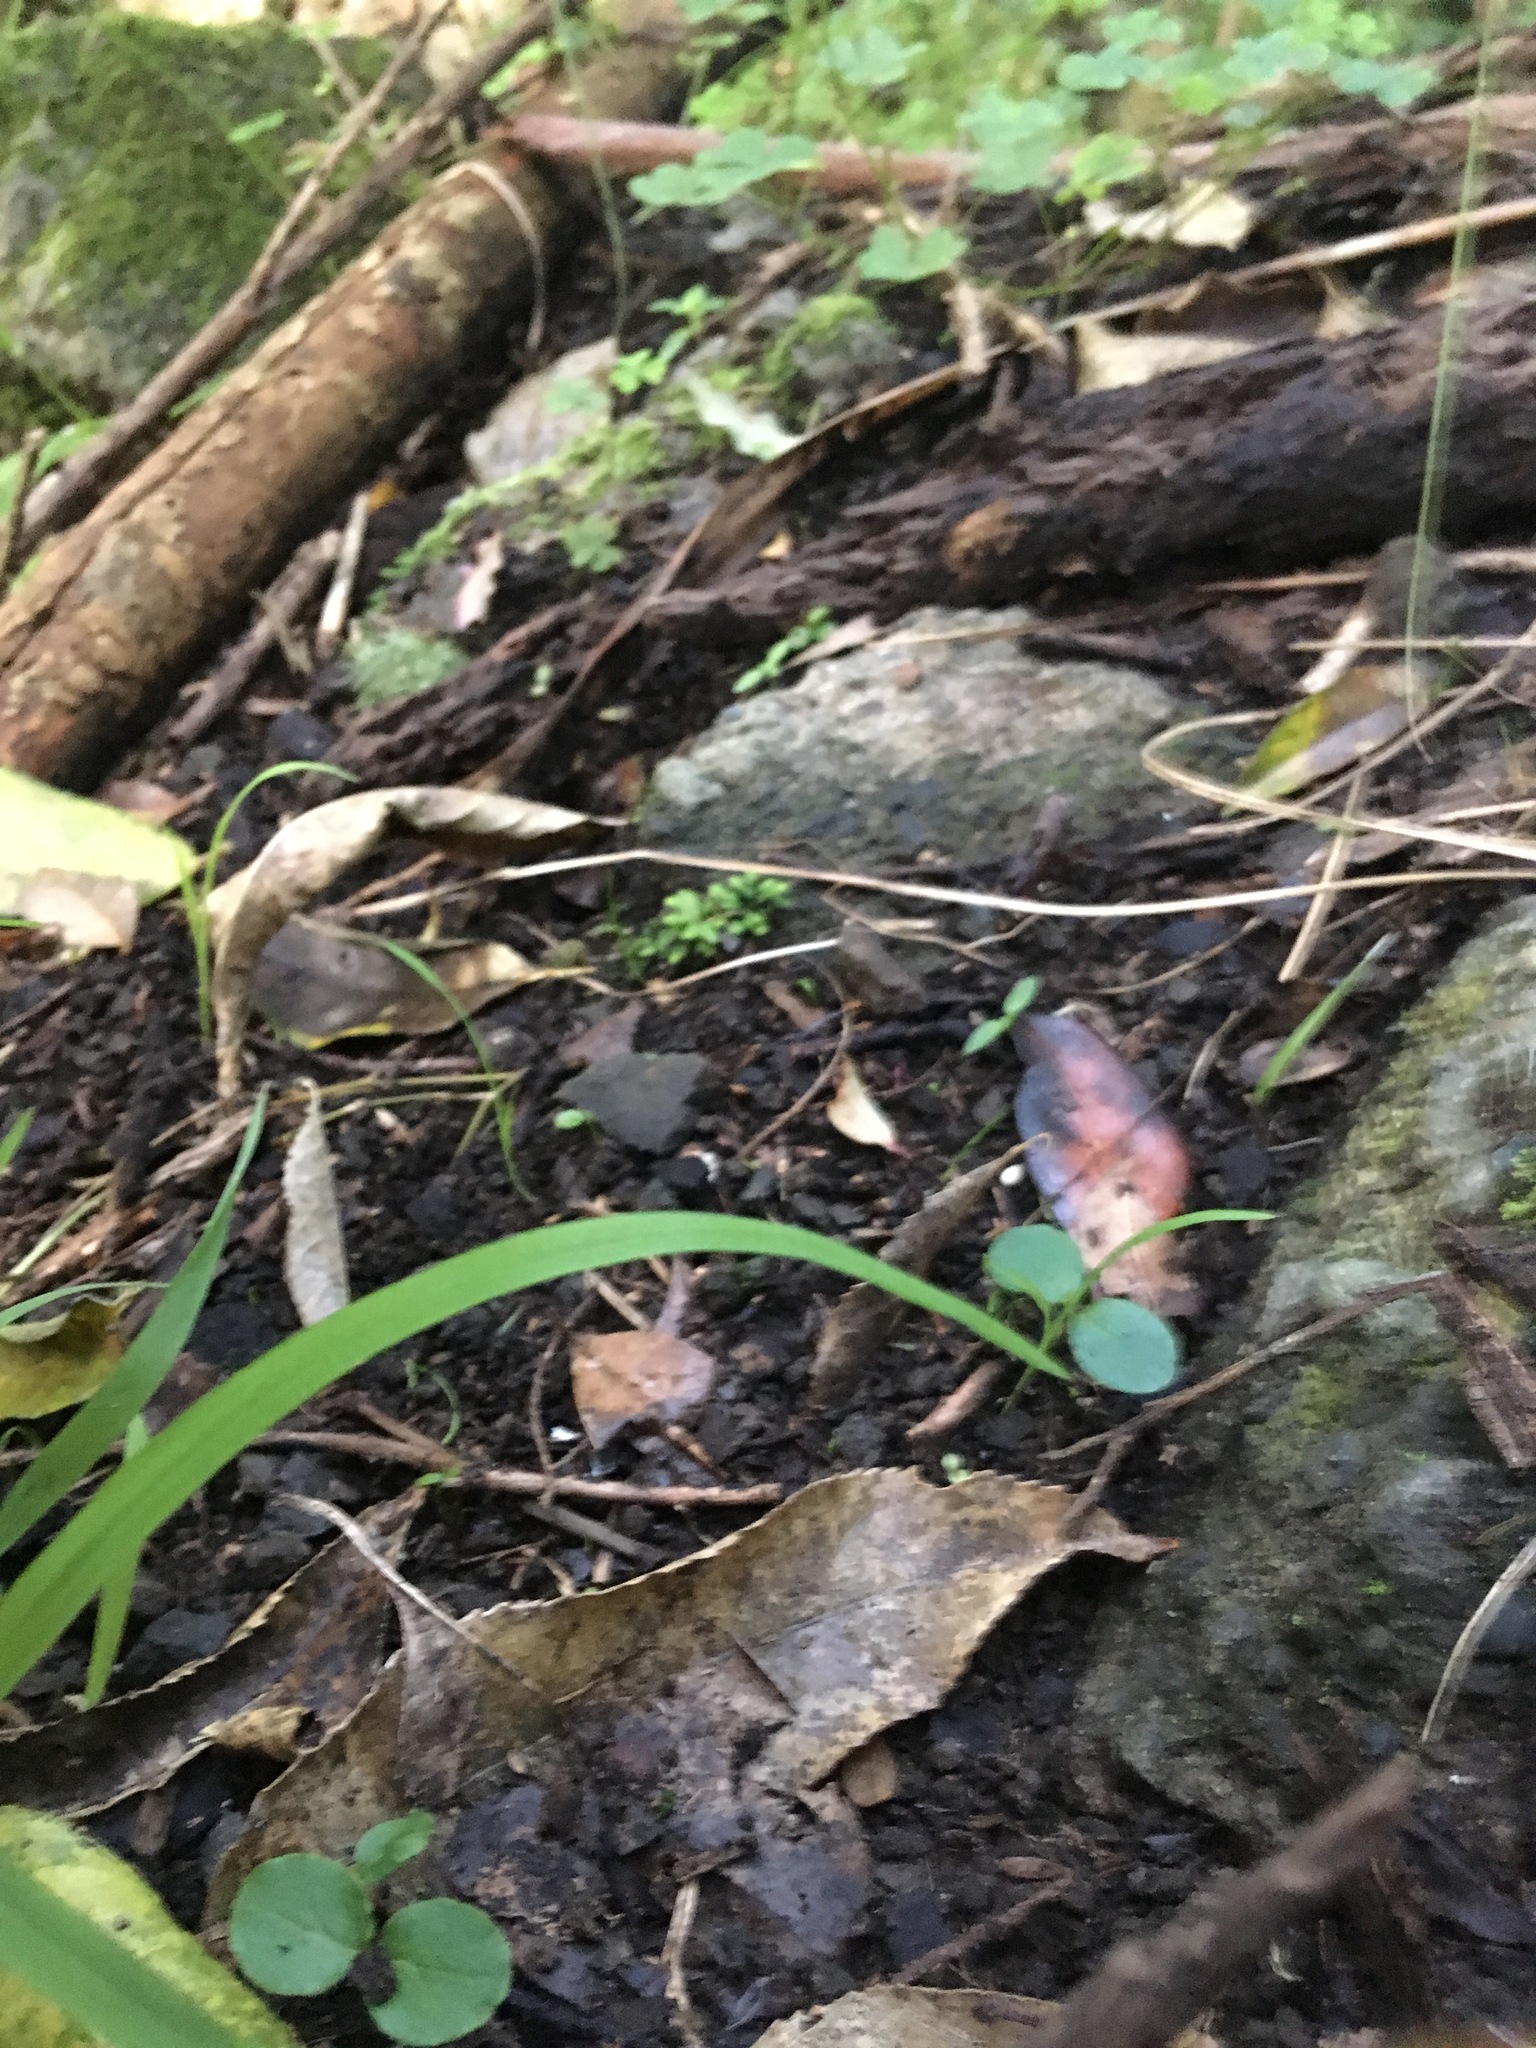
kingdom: Plantae
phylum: Tracheophyta
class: Magnoliopsida
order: Lamiales
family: Oleaceae
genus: Ligustrum
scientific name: Ligustrum sinense
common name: Chinese privet
